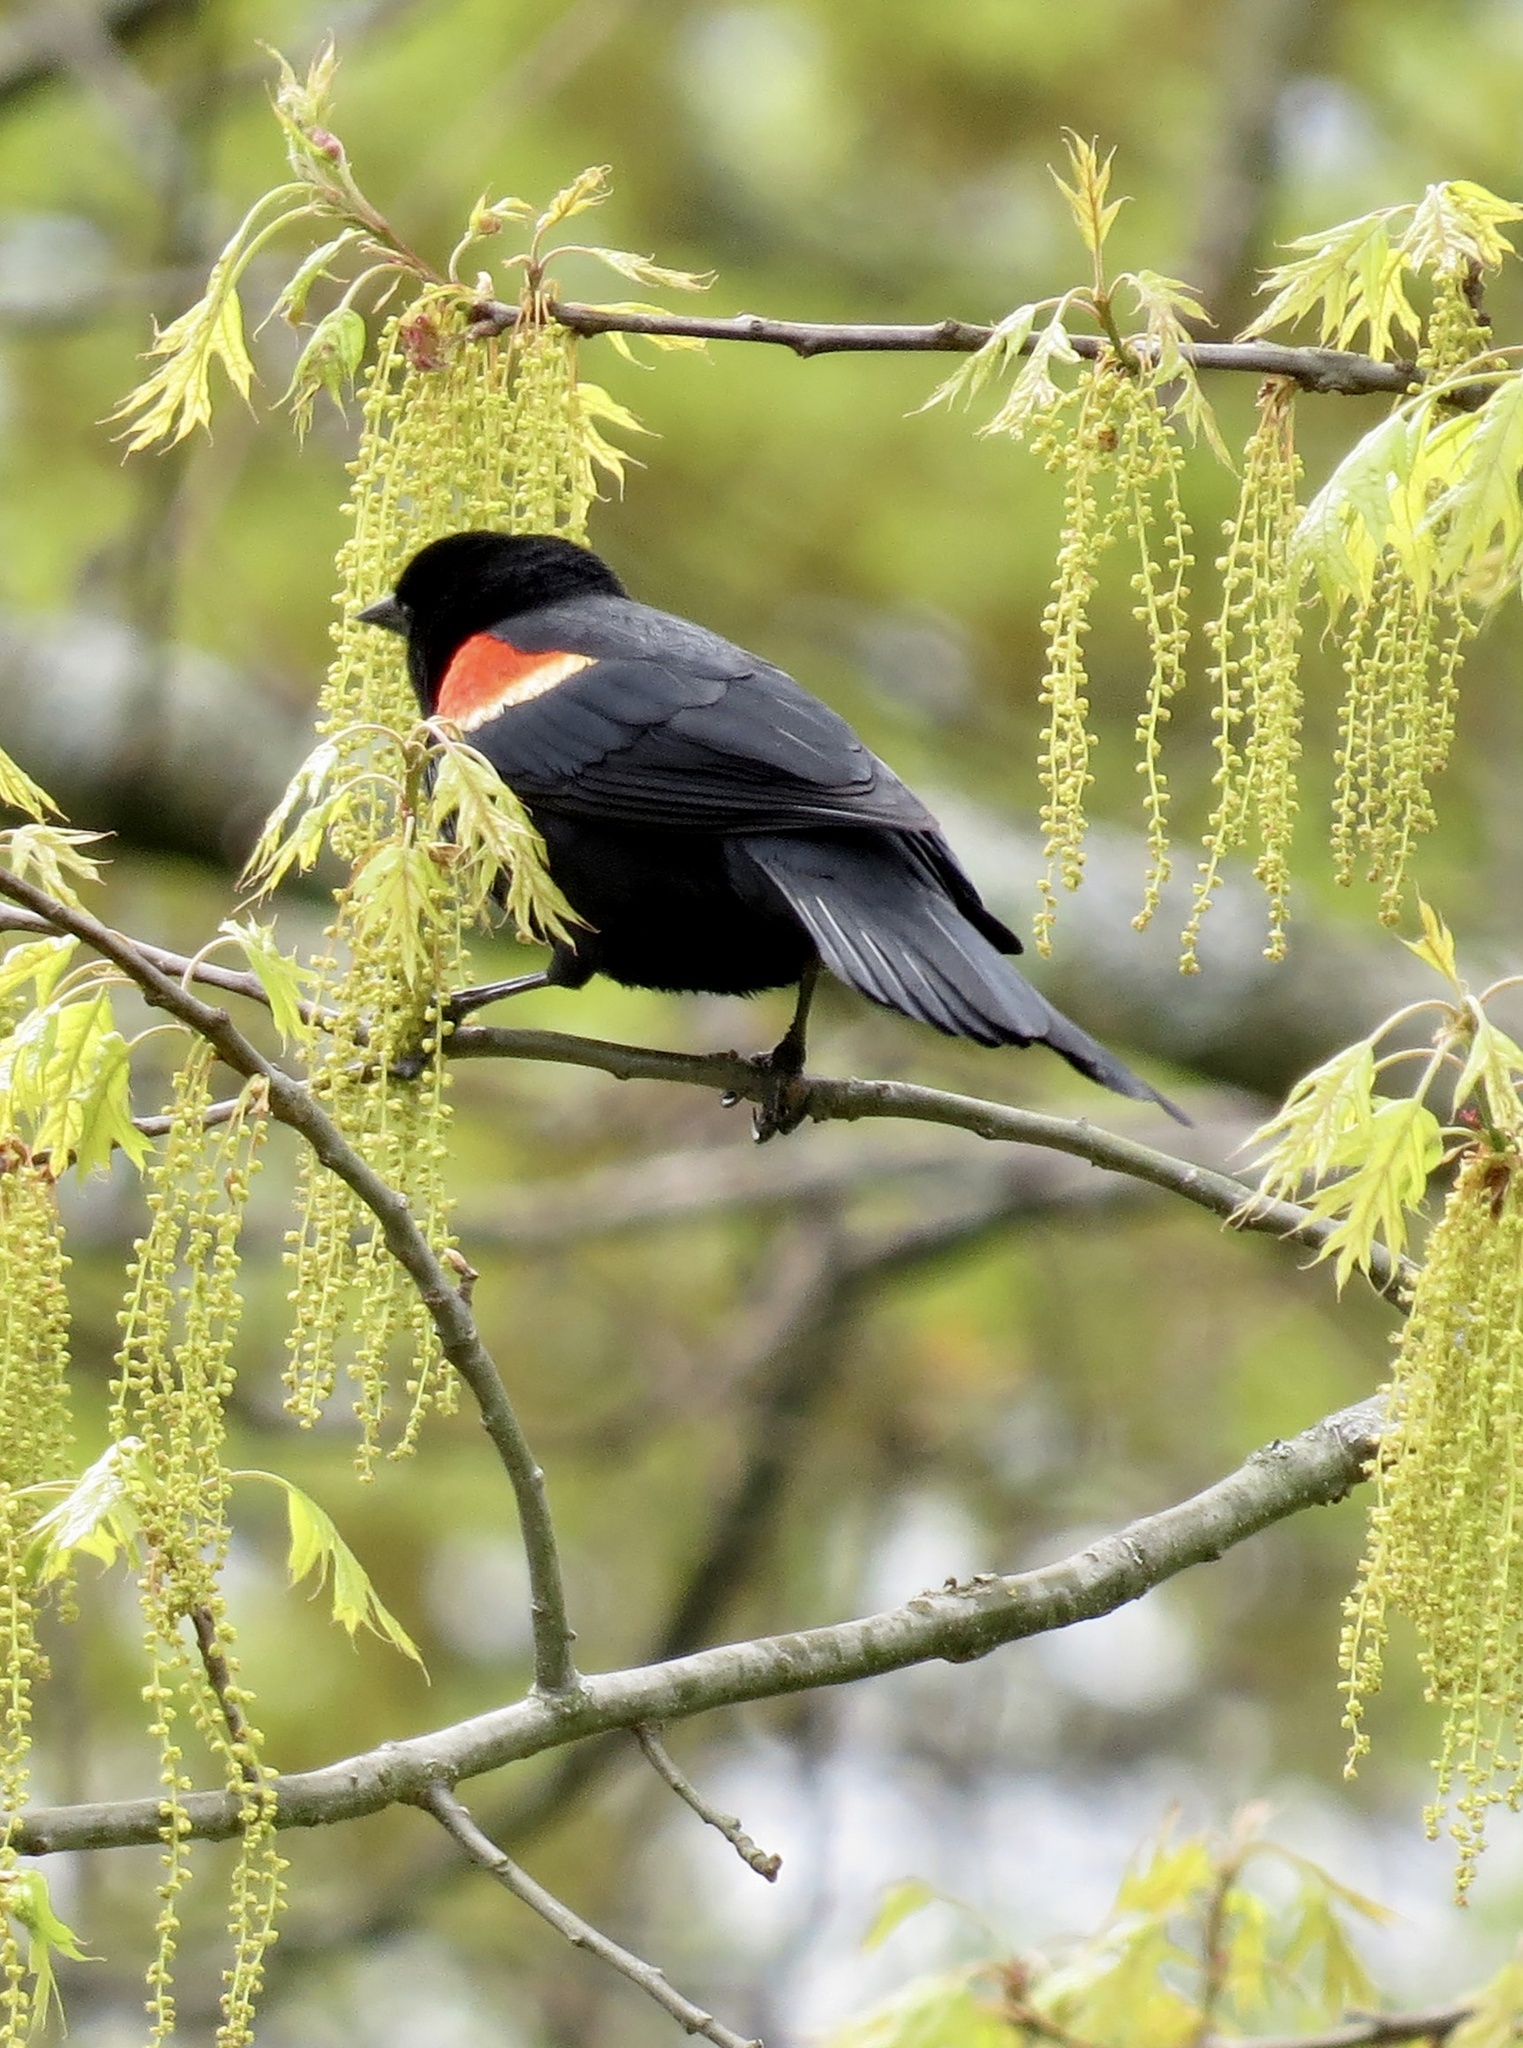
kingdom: Animalia
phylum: Chordata
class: Aves
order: Passeriformes
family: Icteridae
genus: Agelaius
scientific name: Agelaius phoeniceus
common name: Red-winged blackbird
